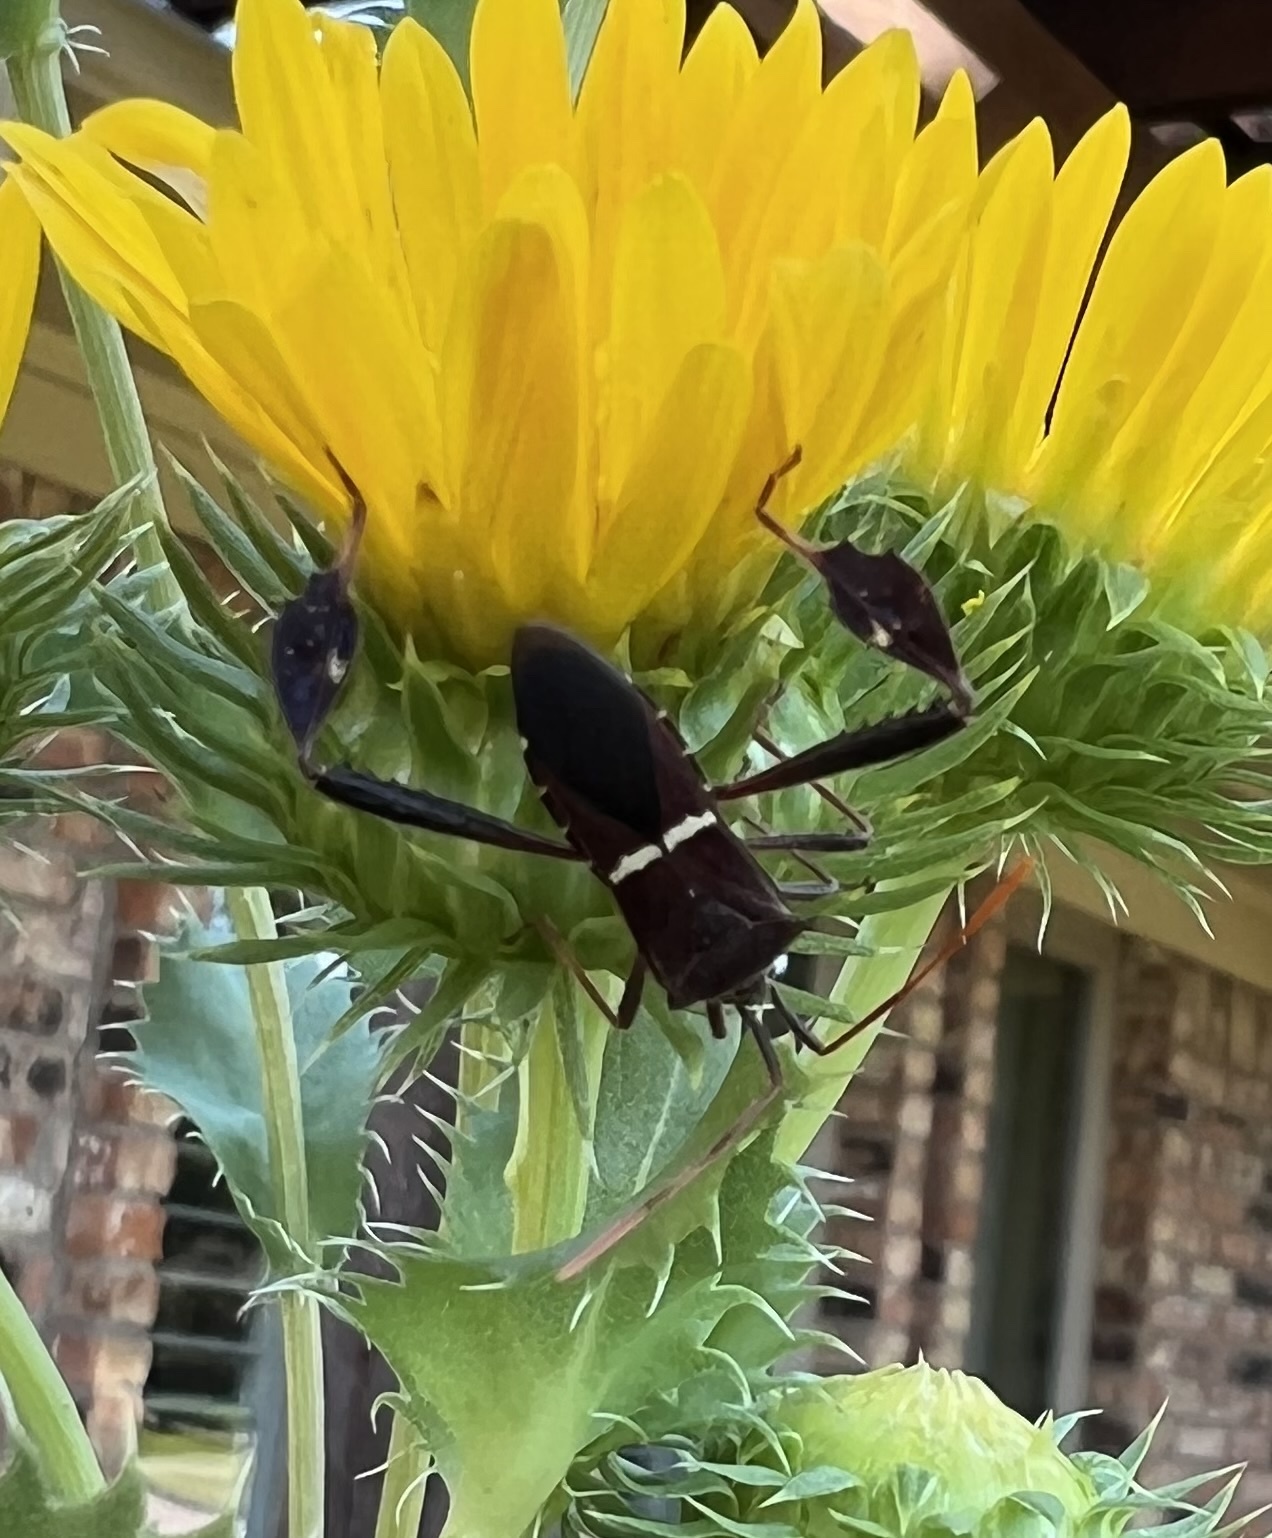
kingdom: Animalia
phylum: Arthropoda
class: Insecta
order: Hemiptera
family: Coreidae
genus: Leptoglossus
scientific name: Leptoglossus phyllopus
